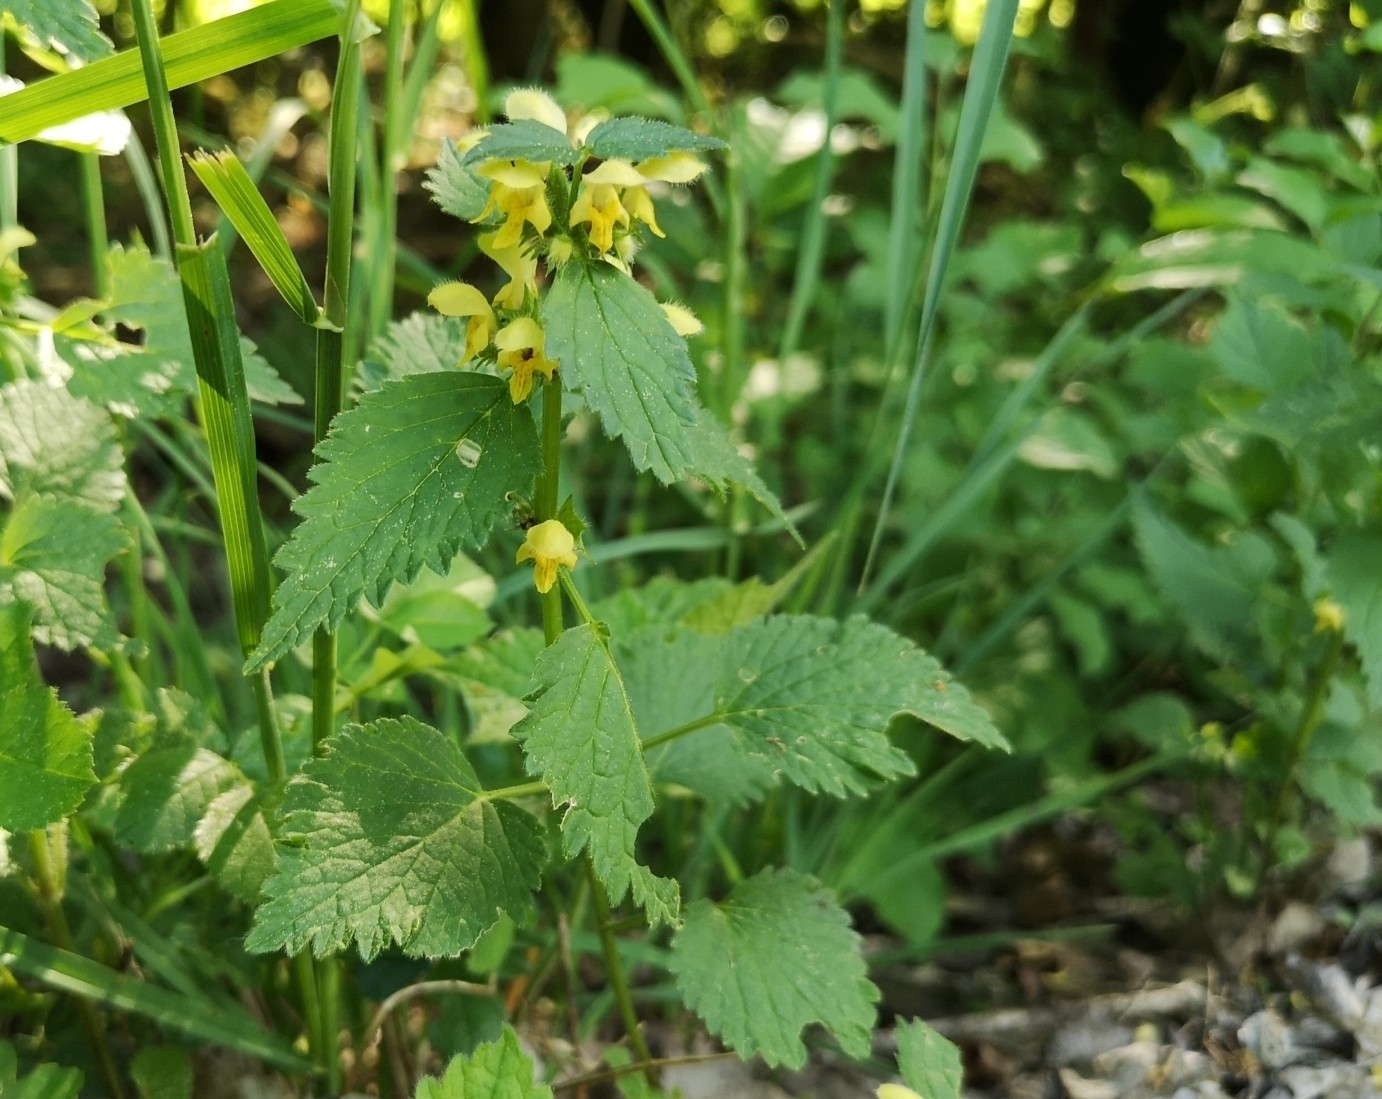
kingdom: Plantae
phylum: Tracheophyta
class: Magnoliopsida
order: Lamiales
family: Lamiaceae
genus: Lamium
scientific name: Lamium galeobdolon
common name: Yellow archangel
